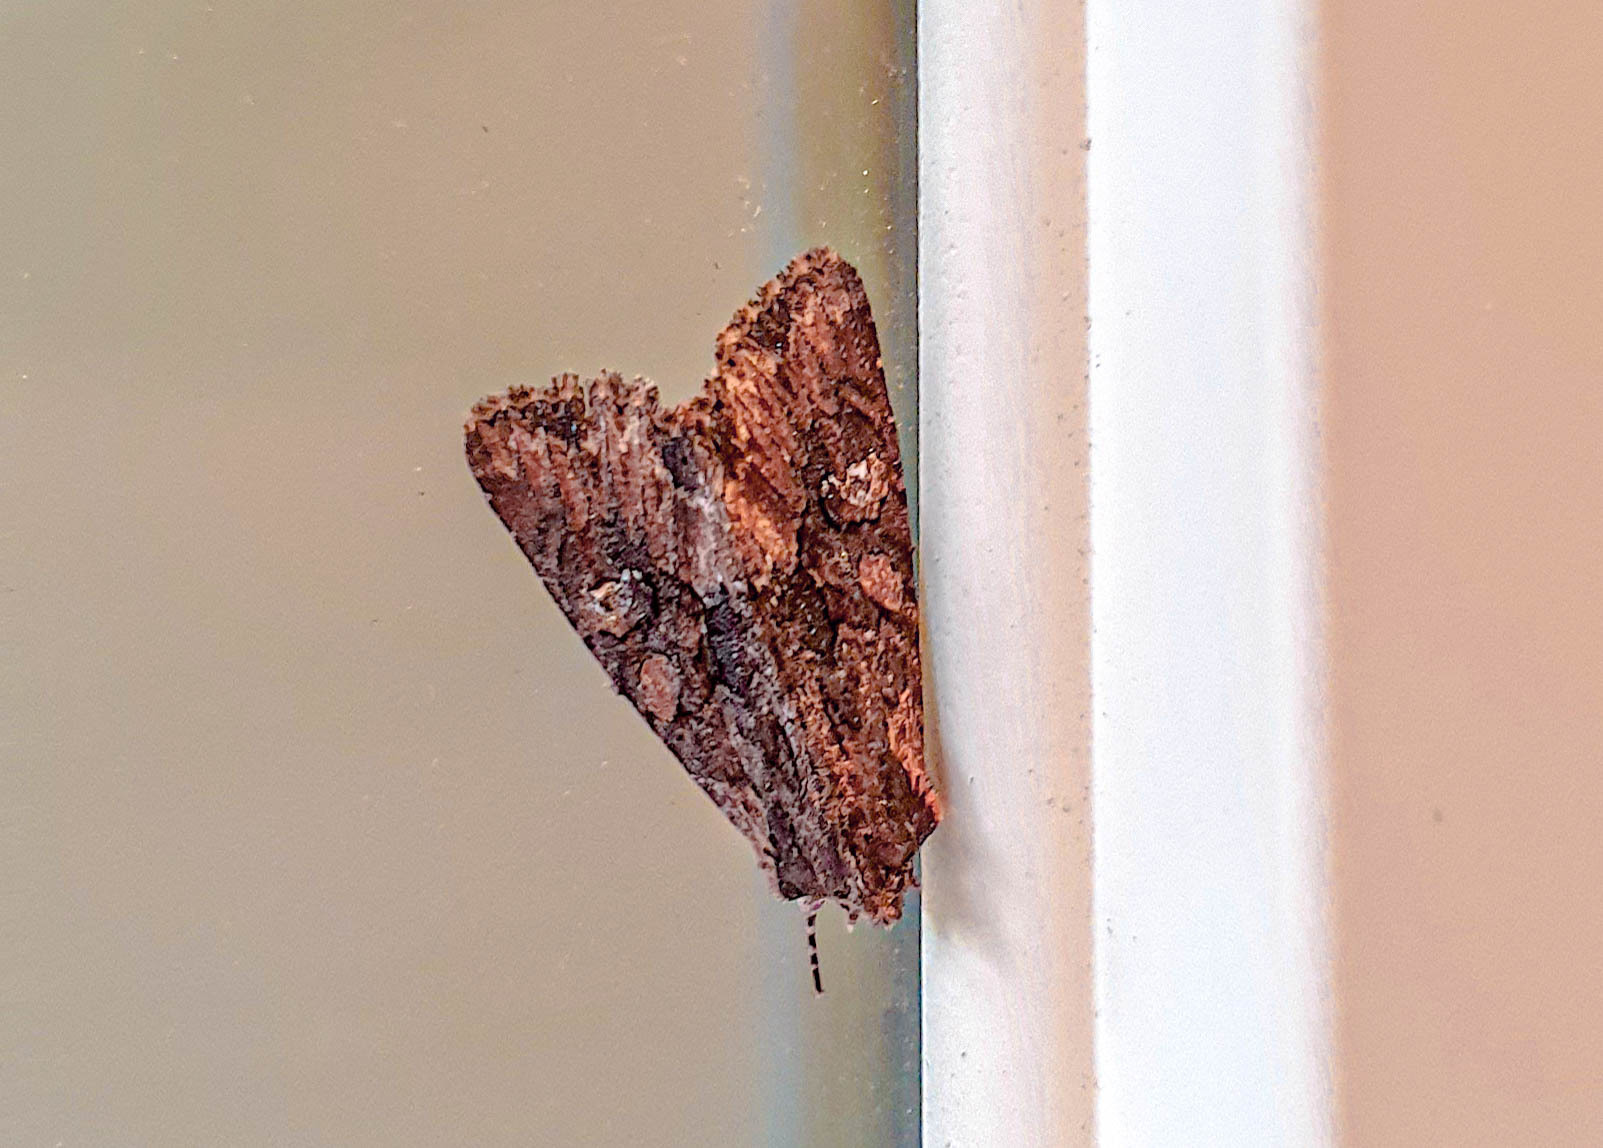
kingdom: Animalia
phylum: Arthropoda
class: Insecta
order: Lepidoptera
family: Noctuidae
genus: Mniotype
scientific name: Mniotype solieri
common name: Bedrule brocade
